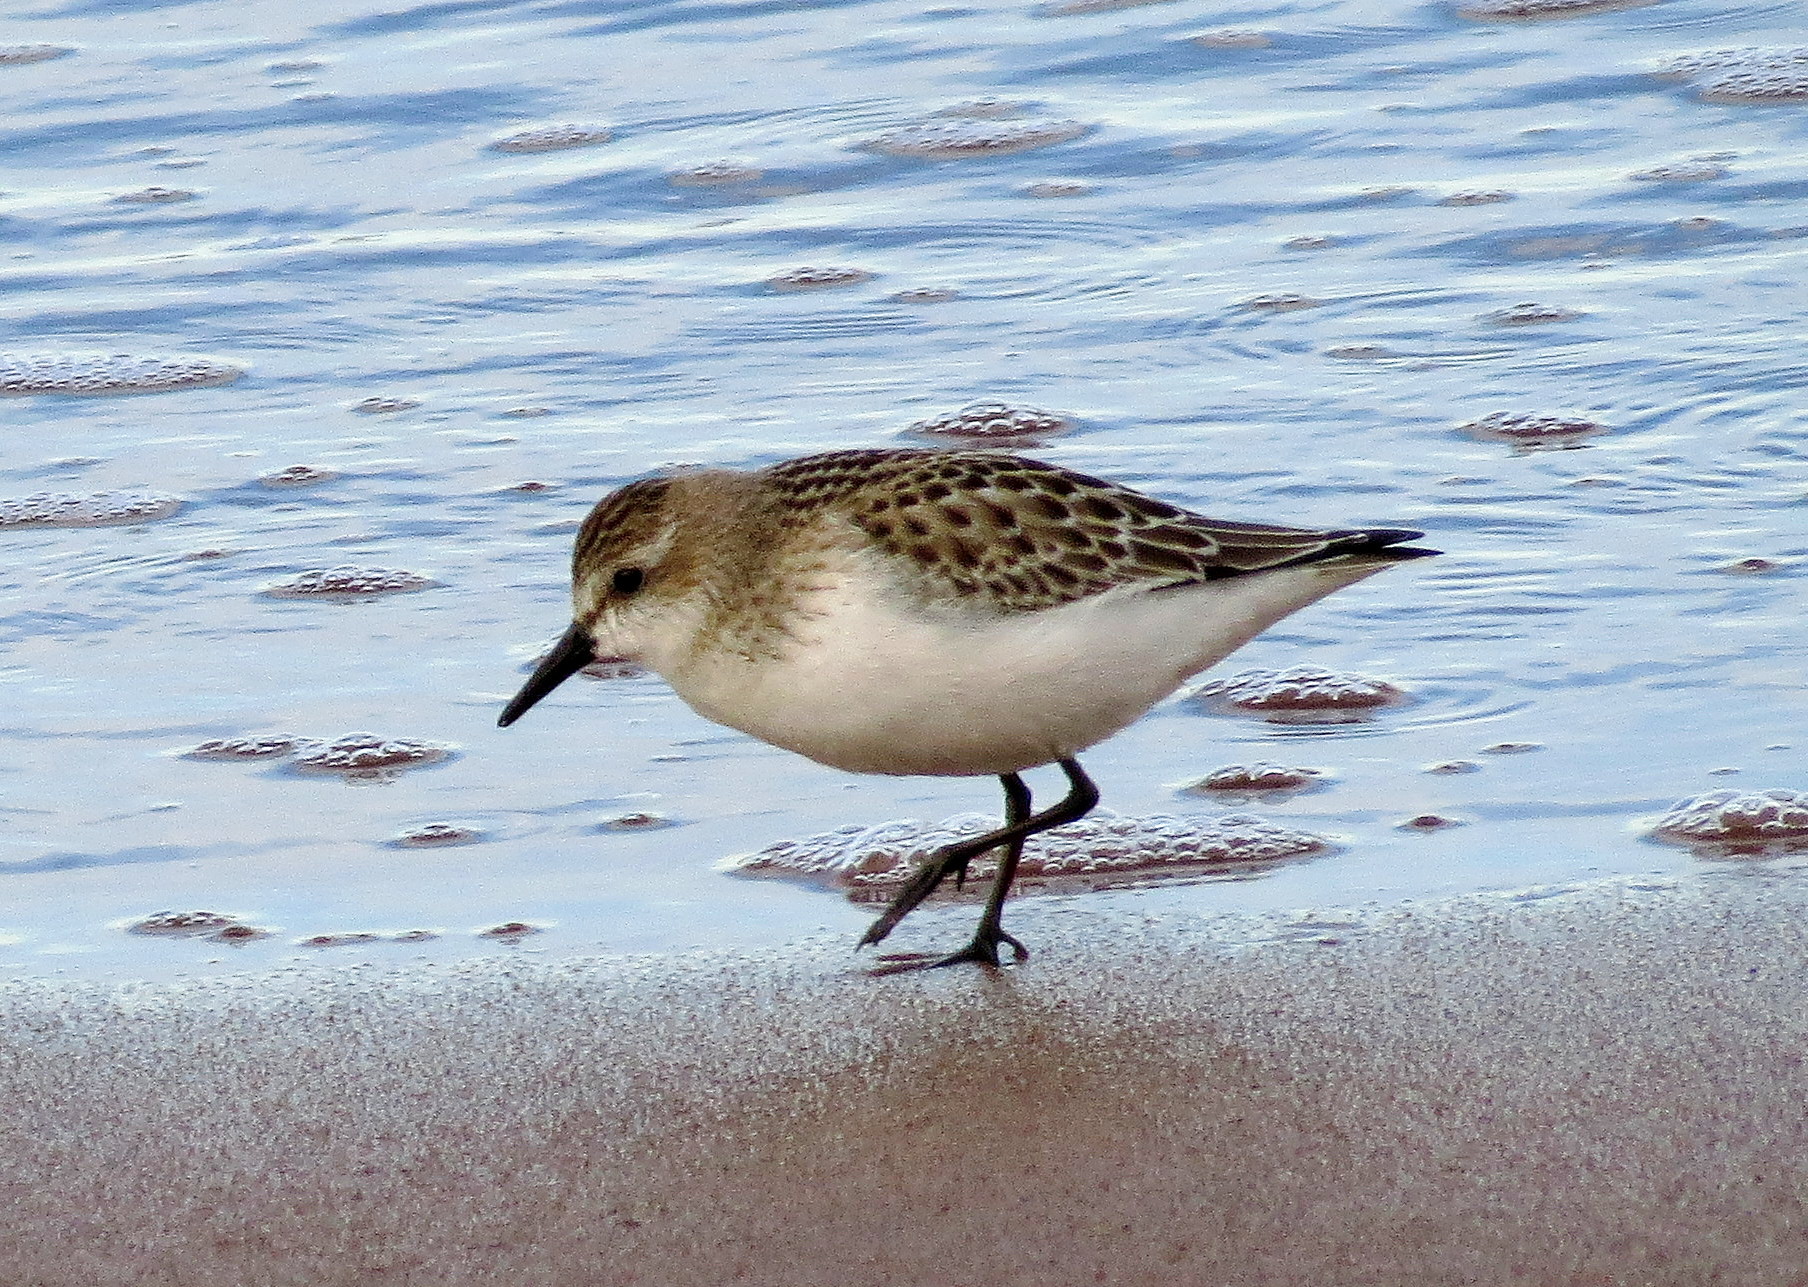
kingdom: Animalia
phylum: Chordata
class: Aves
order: Charadriiformes
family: Scolopacidae
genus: Calidris
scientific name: Calidris pusilla
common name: Semipalmated sandpiper
